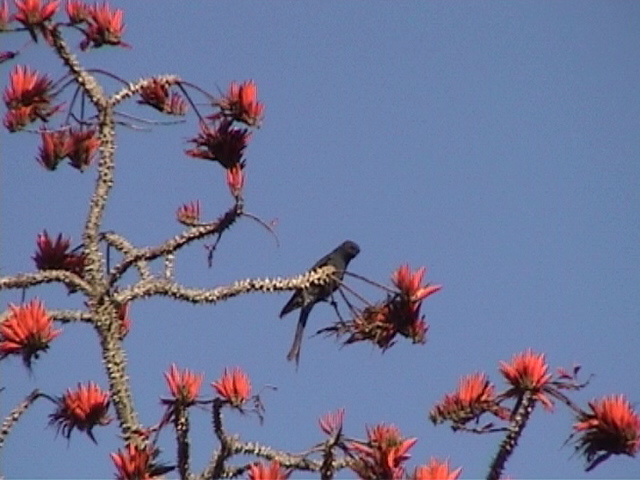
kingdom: Animalia
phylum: Chordata
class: Aves
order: Passeriformes
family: Dicruridae
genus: Dicrurus
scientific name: Dicrurus leucophaeus
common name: Ashy drongo
